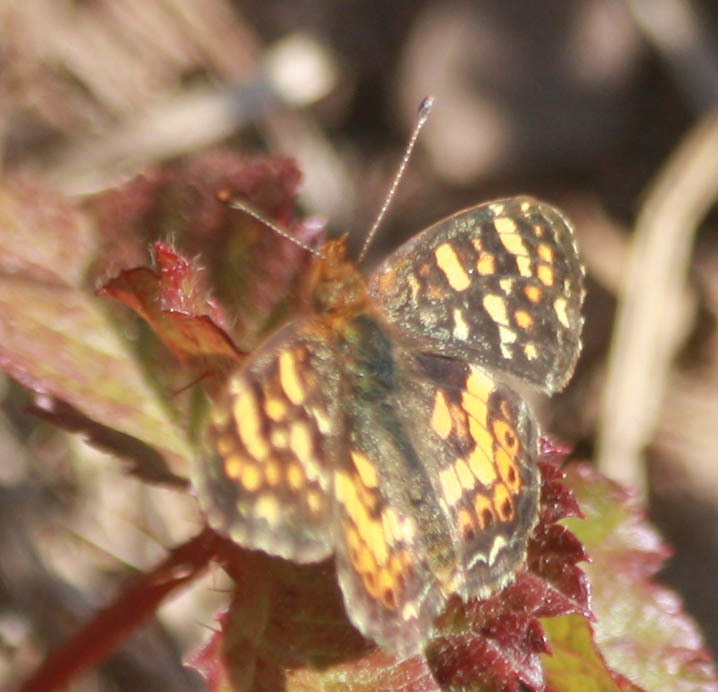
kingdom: Animalia
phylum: Arthropoda
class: Insecta
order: Lepidoptera
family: Nymphalidae
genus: Phyciodes
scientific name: Phyciodes tharos
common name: Pearl crescent
